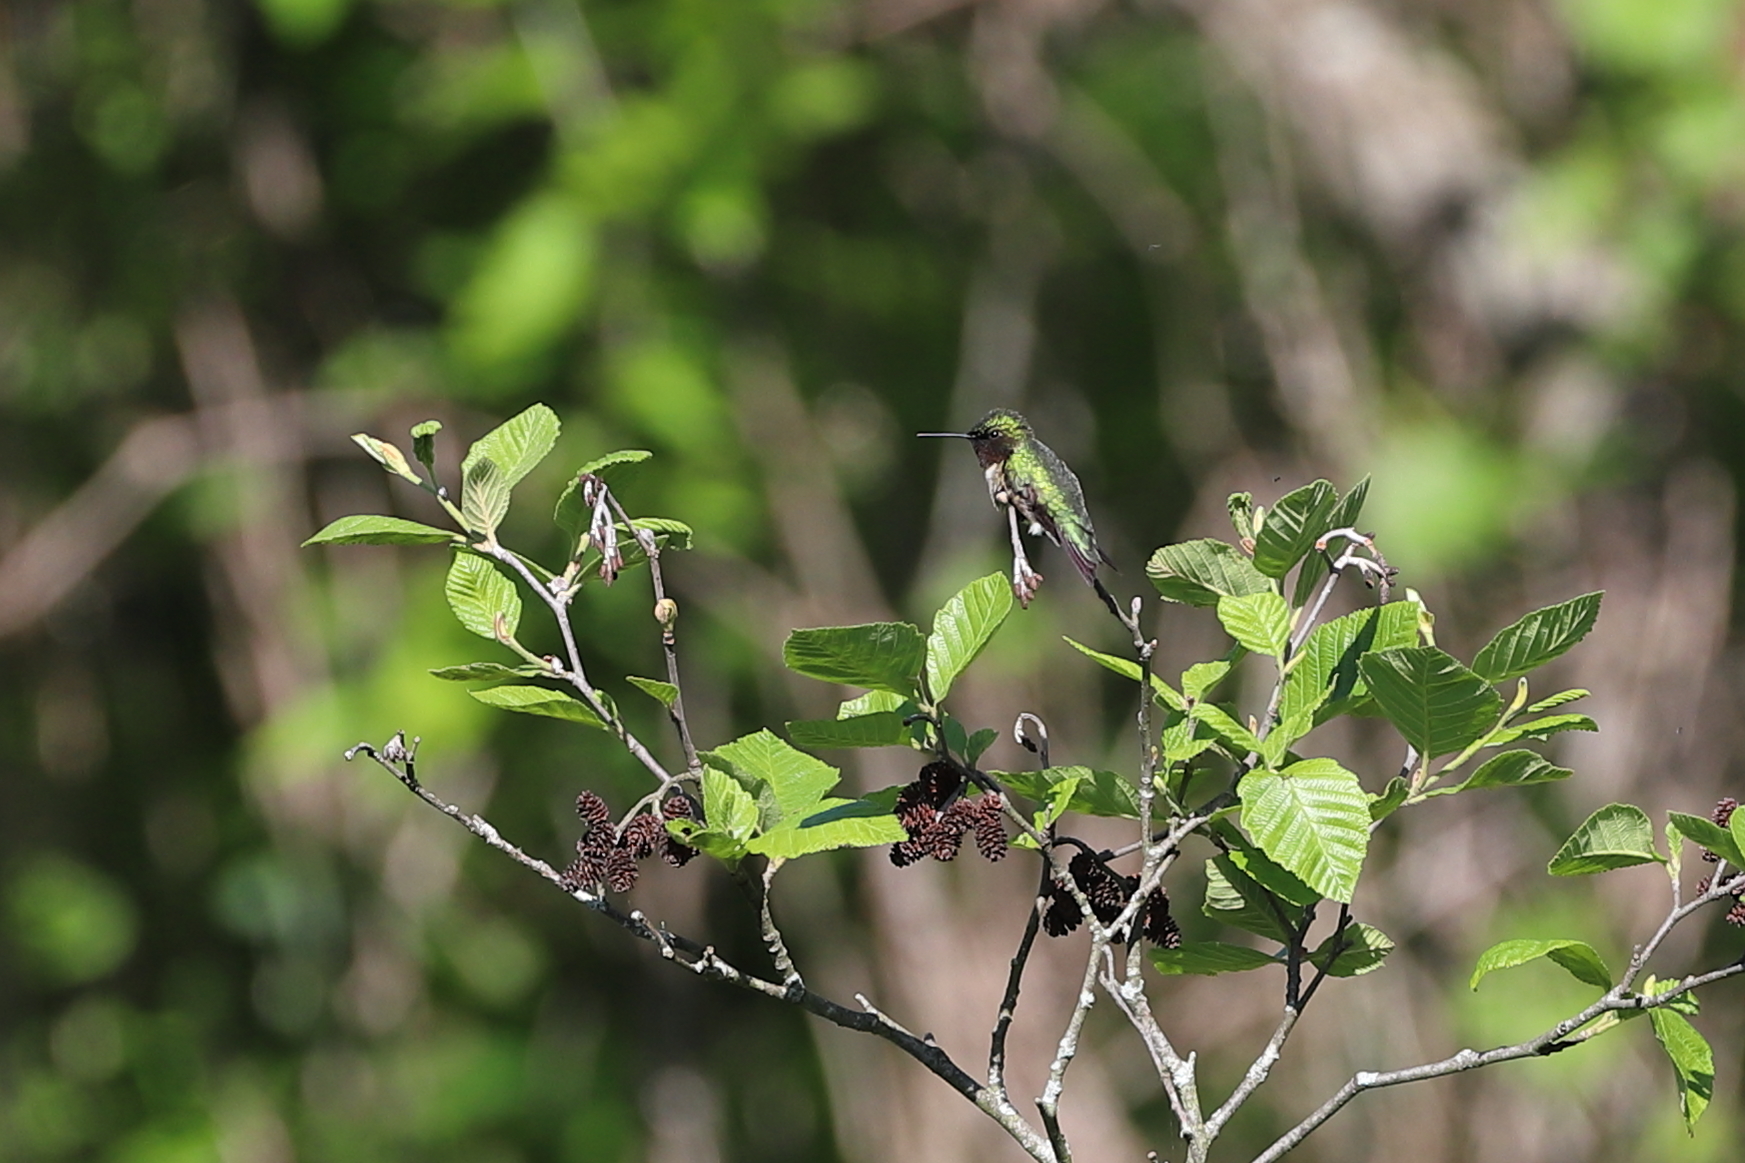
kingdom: Animalia
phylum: Chordata
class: Aves
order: Apodiformes
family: Trochilidae
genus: Archilochus
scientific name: Archilochus colubris
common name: Ruby-throated hummingbird
